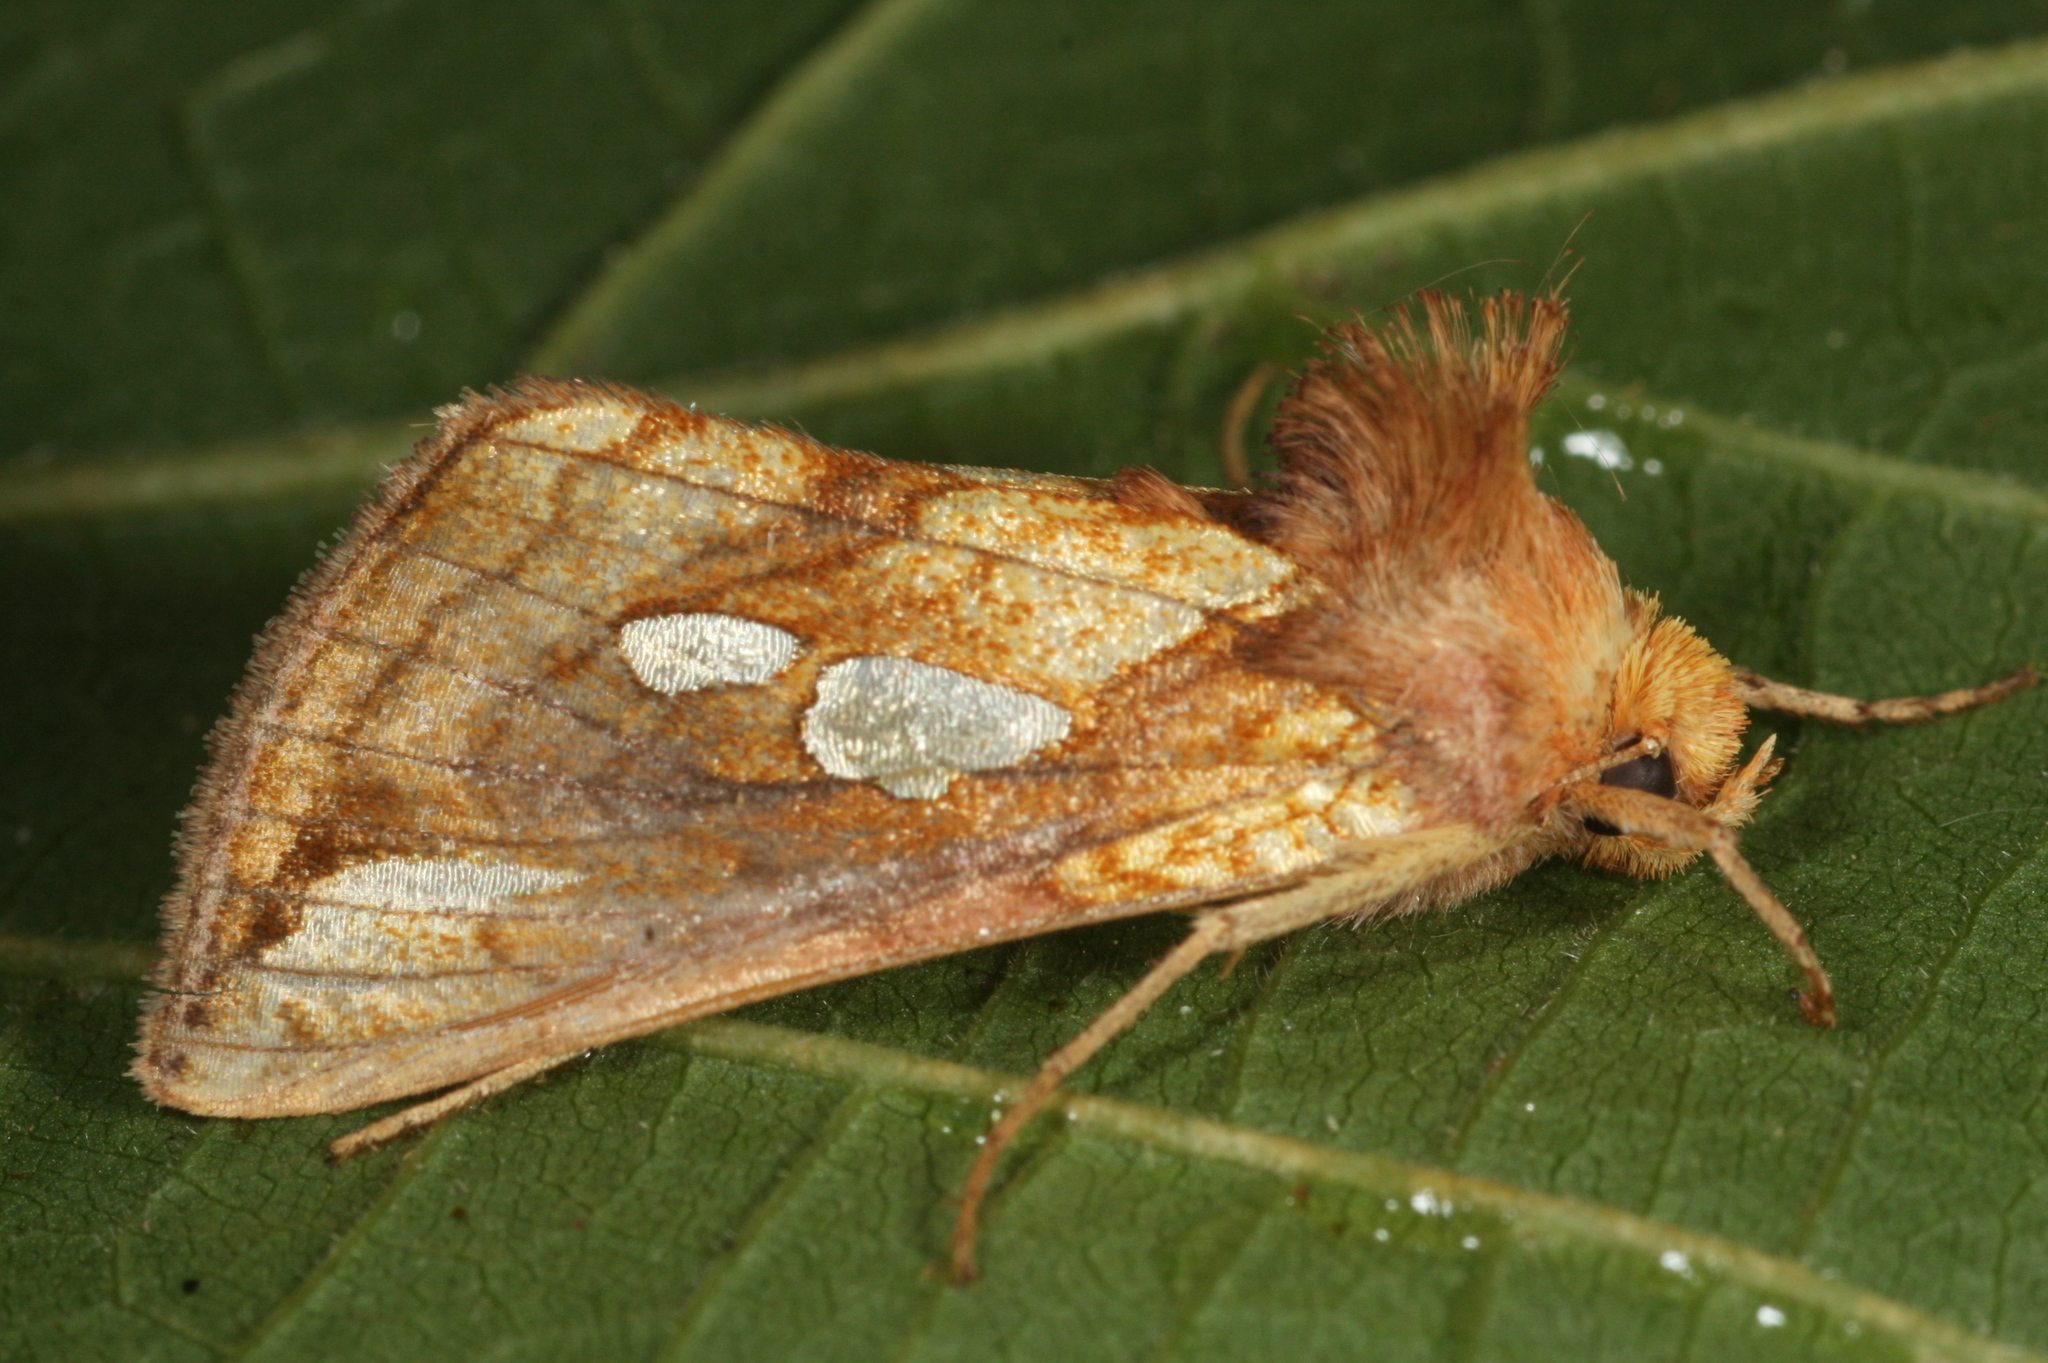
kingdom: Animalia
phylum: Arthropoda
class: Insecta
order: Lepidoptera
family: Noctuidae
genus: Plusia
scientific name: Plusia festucae
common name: Gold spot
